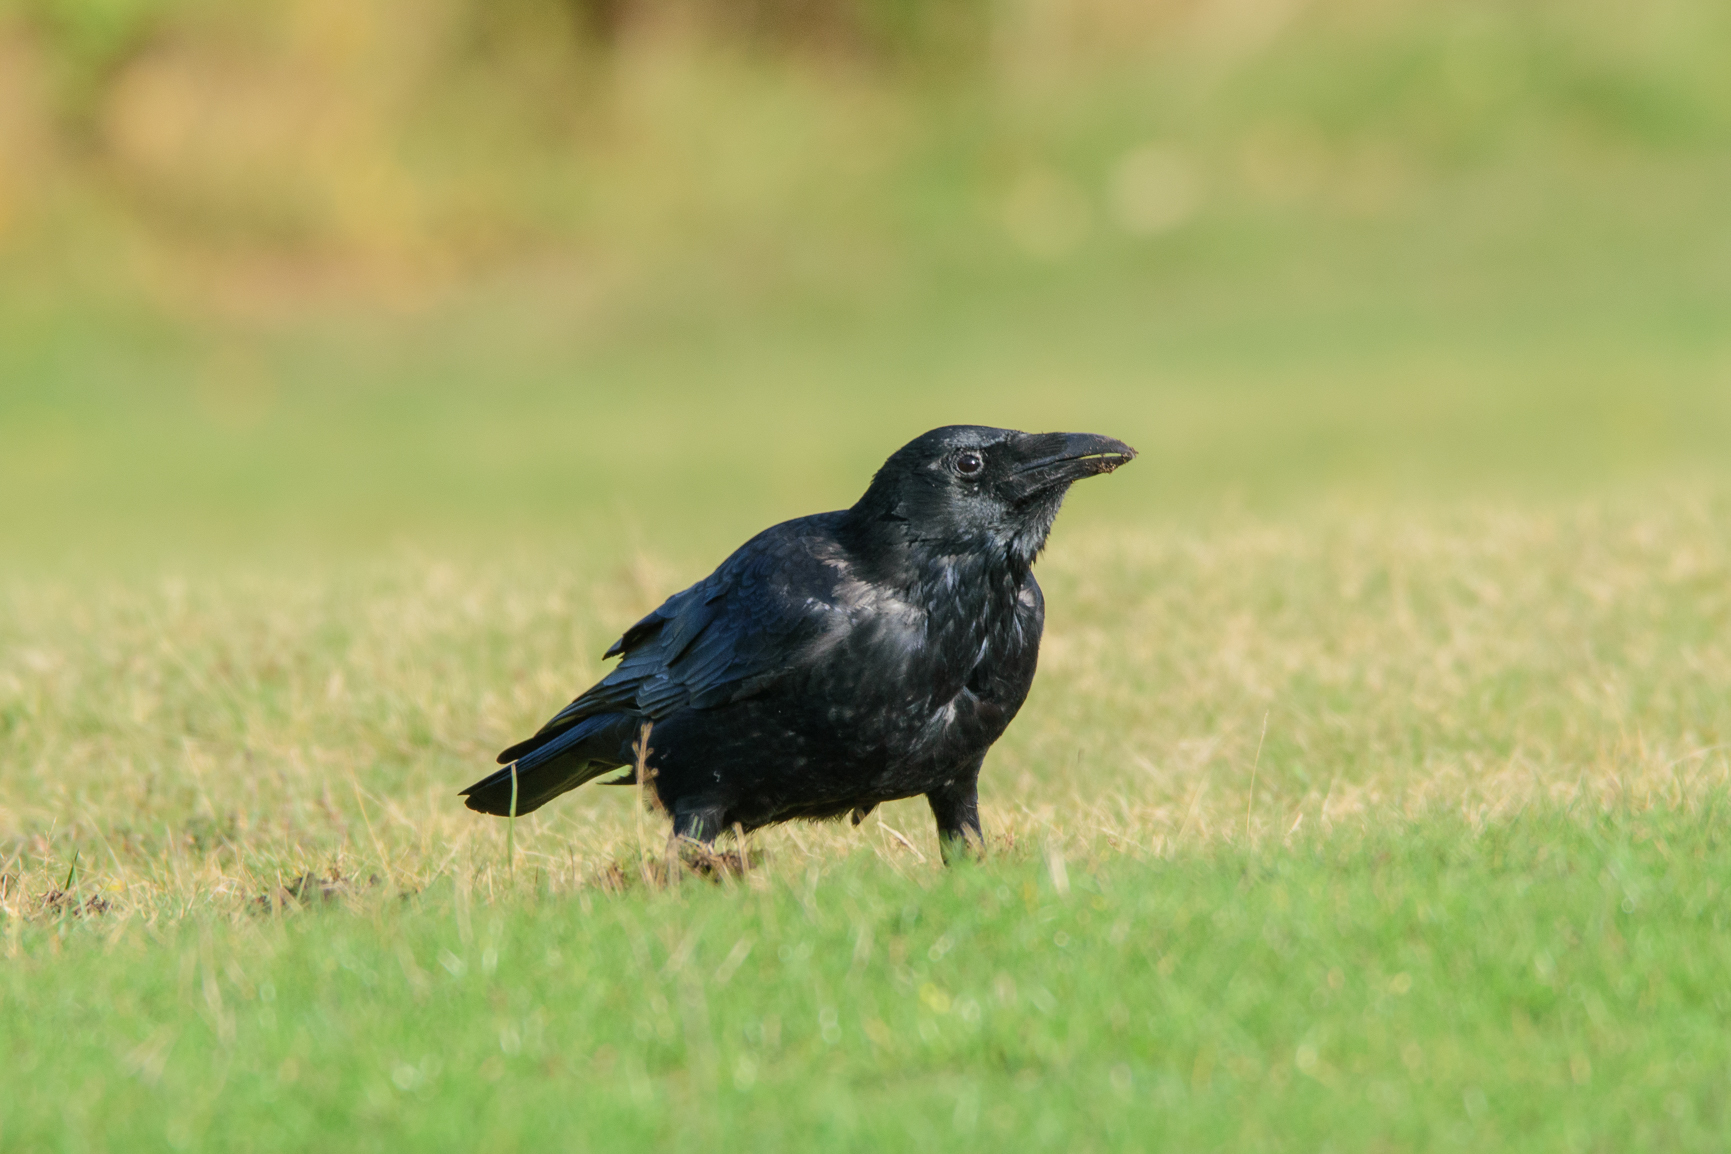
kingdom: Animalia
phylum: Chordata
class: Aves
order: Passeriformes
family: Corvidae
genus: Corvus
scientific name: Corvus corone
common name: Carrion crow
